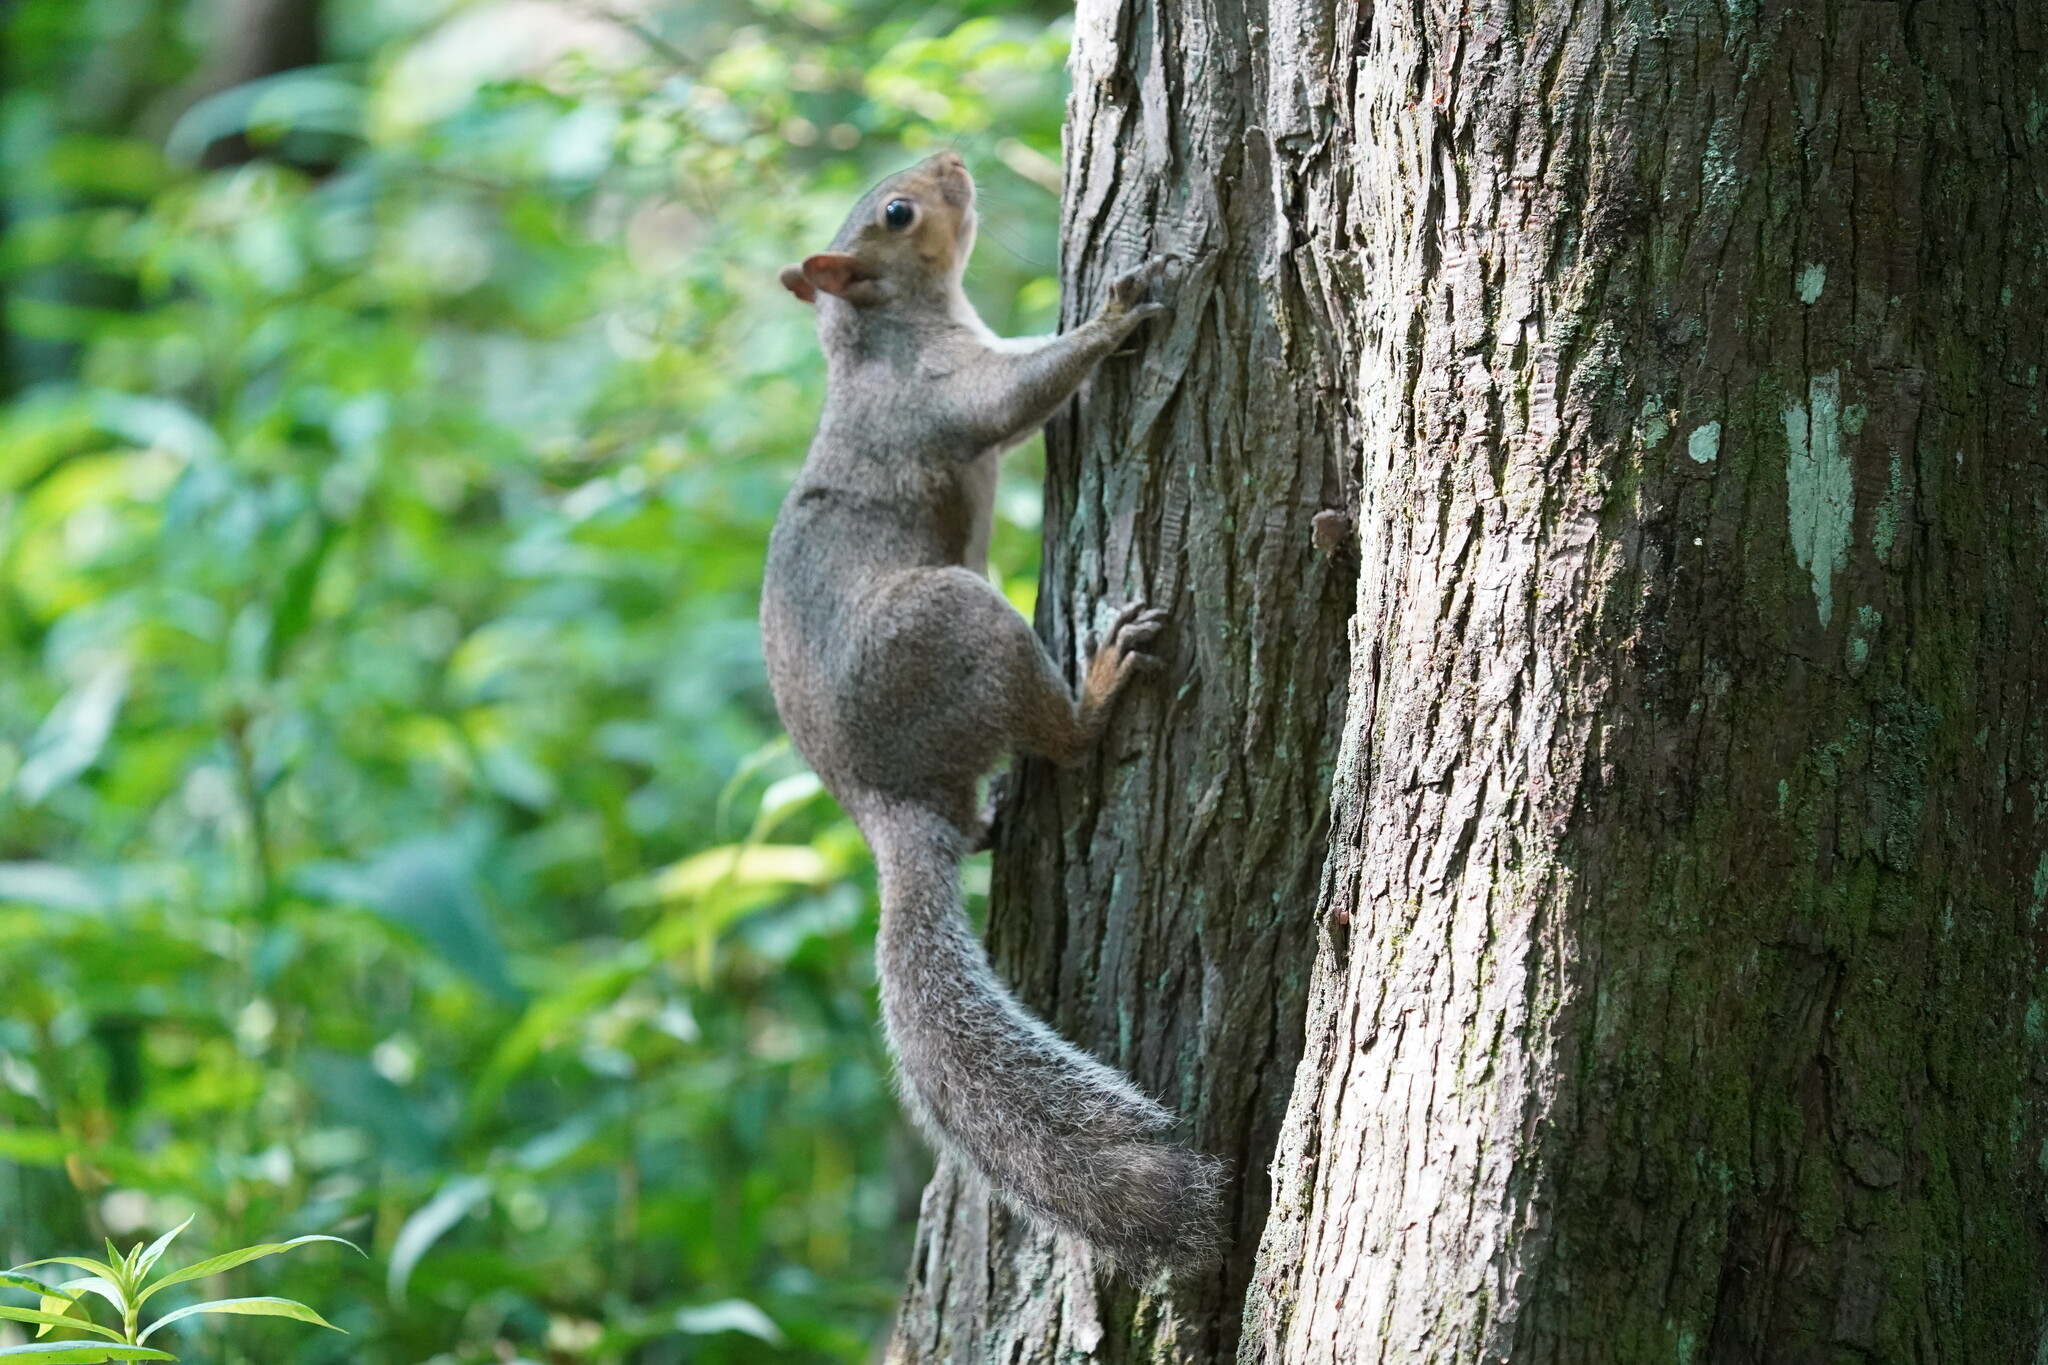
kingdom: Animalia
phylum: Chordata
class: Mammalia
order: Rodentia
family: Sciuridae
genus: Sciurus
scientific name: Sciurus carolinensis
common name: Eastern gray squirrel
